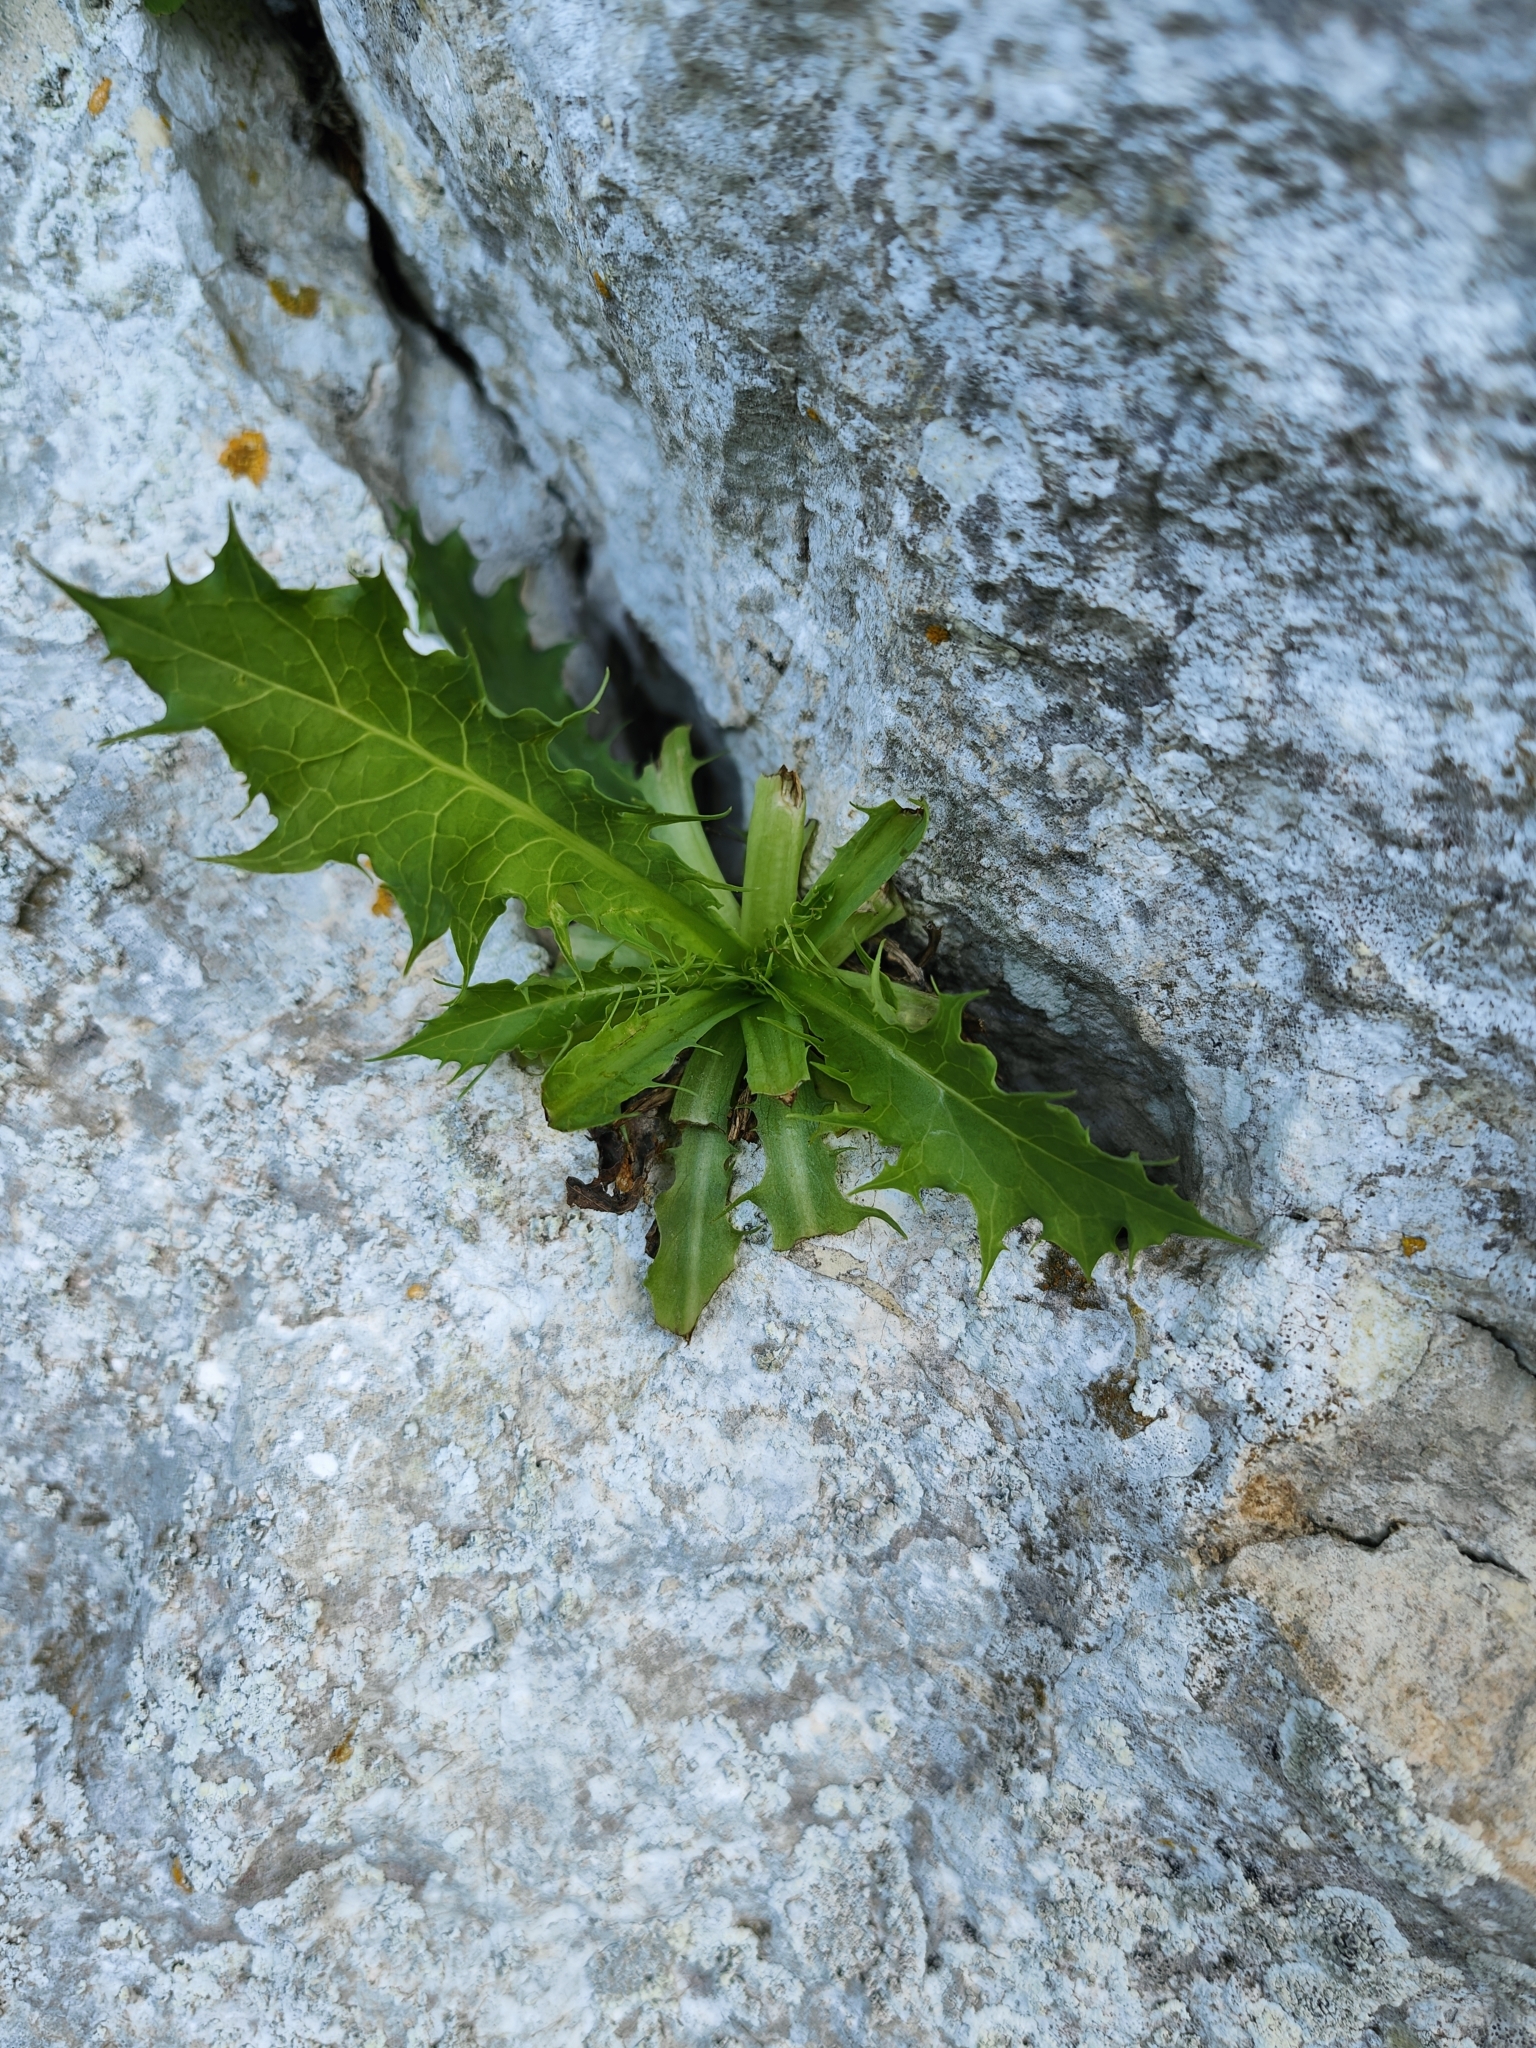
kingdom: Plantae
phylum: Tracheophyta
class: Magnoliopsida
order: Asterales
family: Asteraceae
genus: Lactuca
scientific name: Lactuca longidentata
